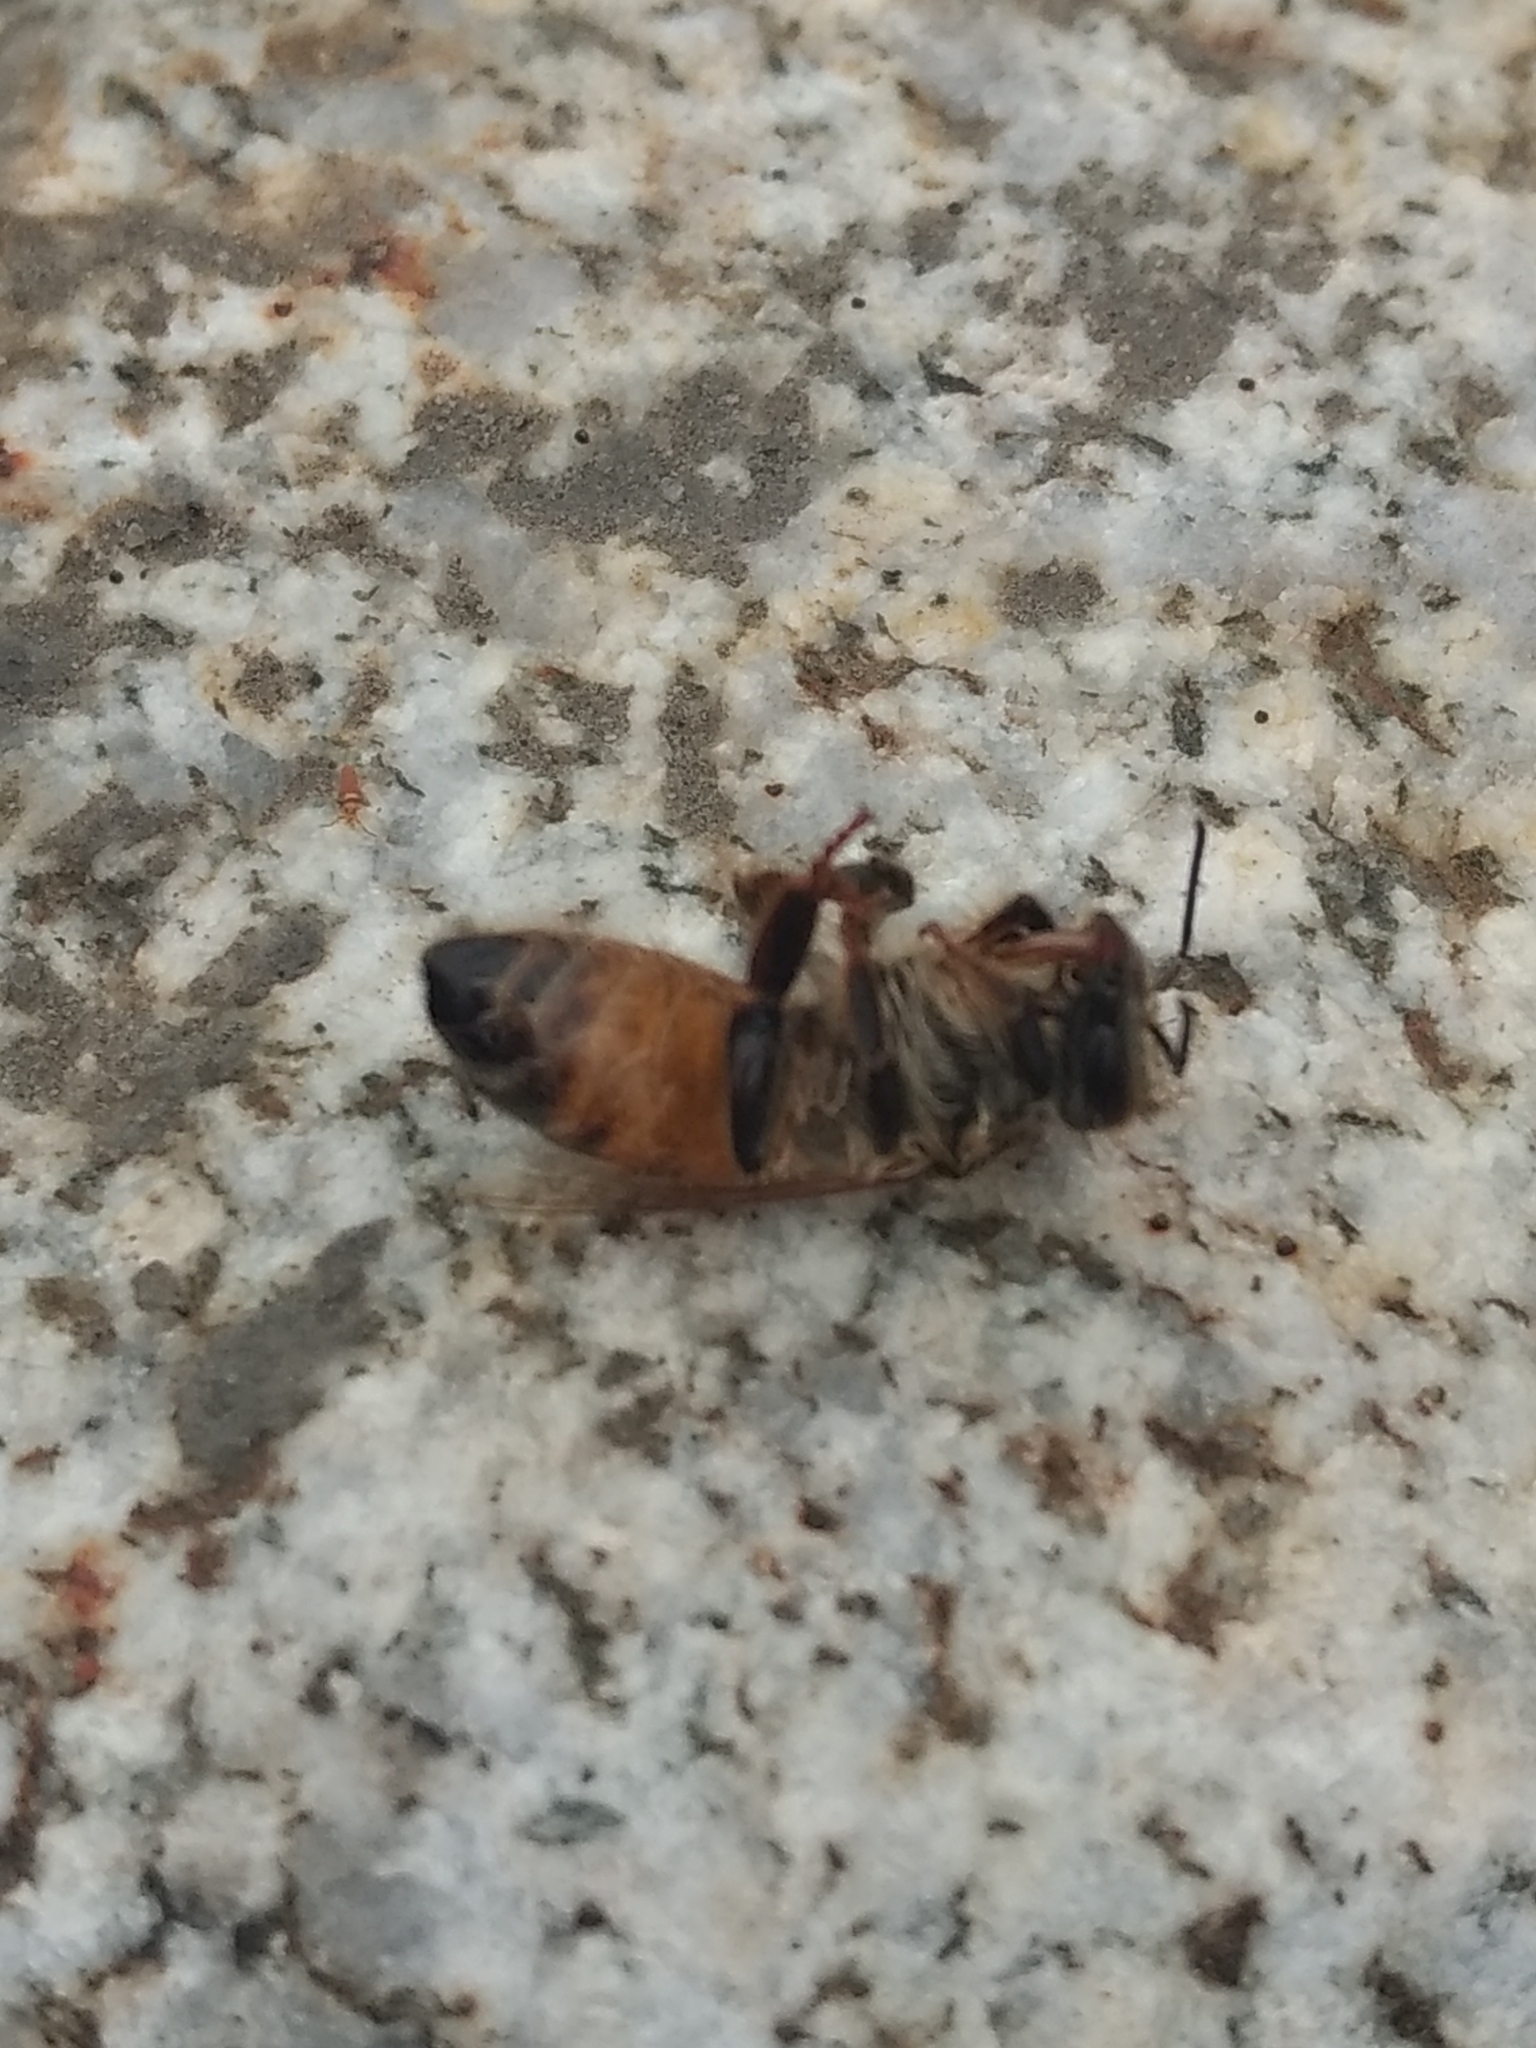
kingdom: Animalia
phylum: Arthropoda
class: Insecta
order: Hymenoptera
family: Apidae
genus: Apis
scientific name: Apis mellifera
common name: Honey bee
